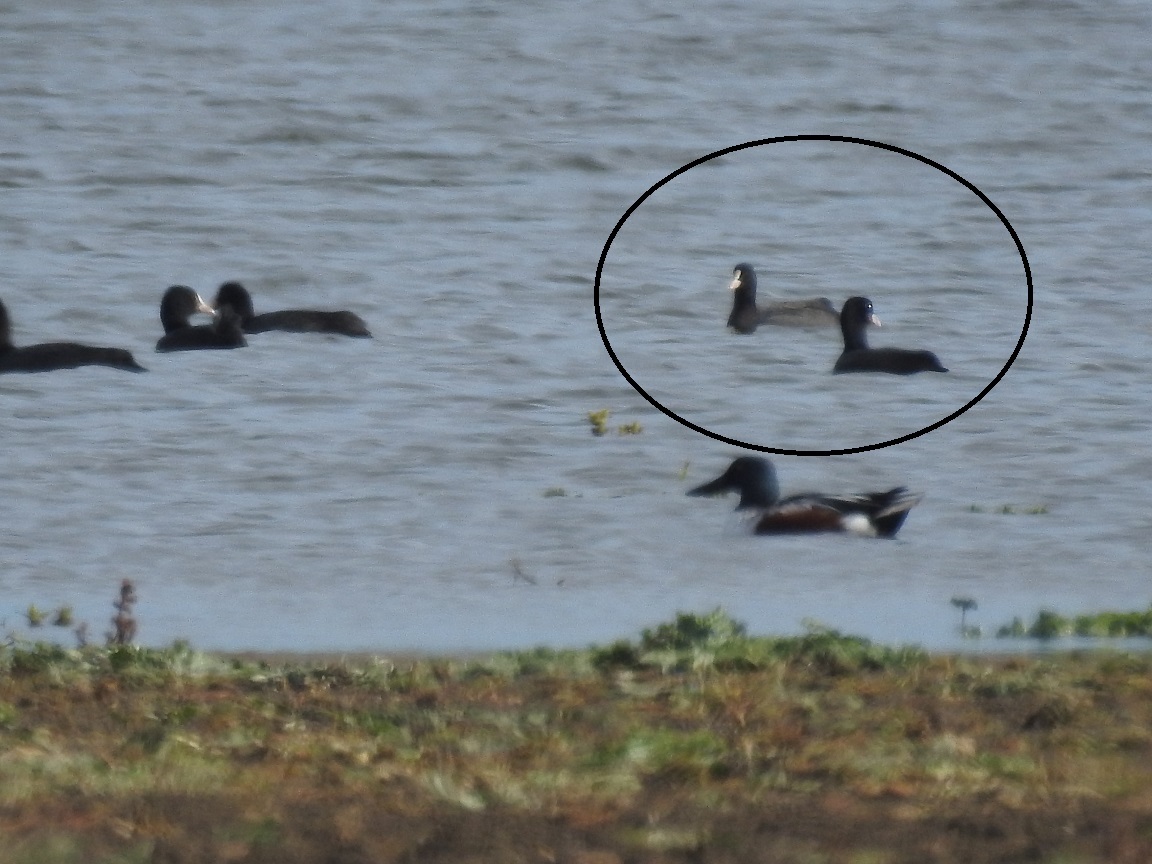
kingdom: Animalia
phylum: Chordata
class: Aves
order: Gruiformes
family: Rallidae
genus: Fulica
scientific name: Fulica atra
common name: Eurasian coot
